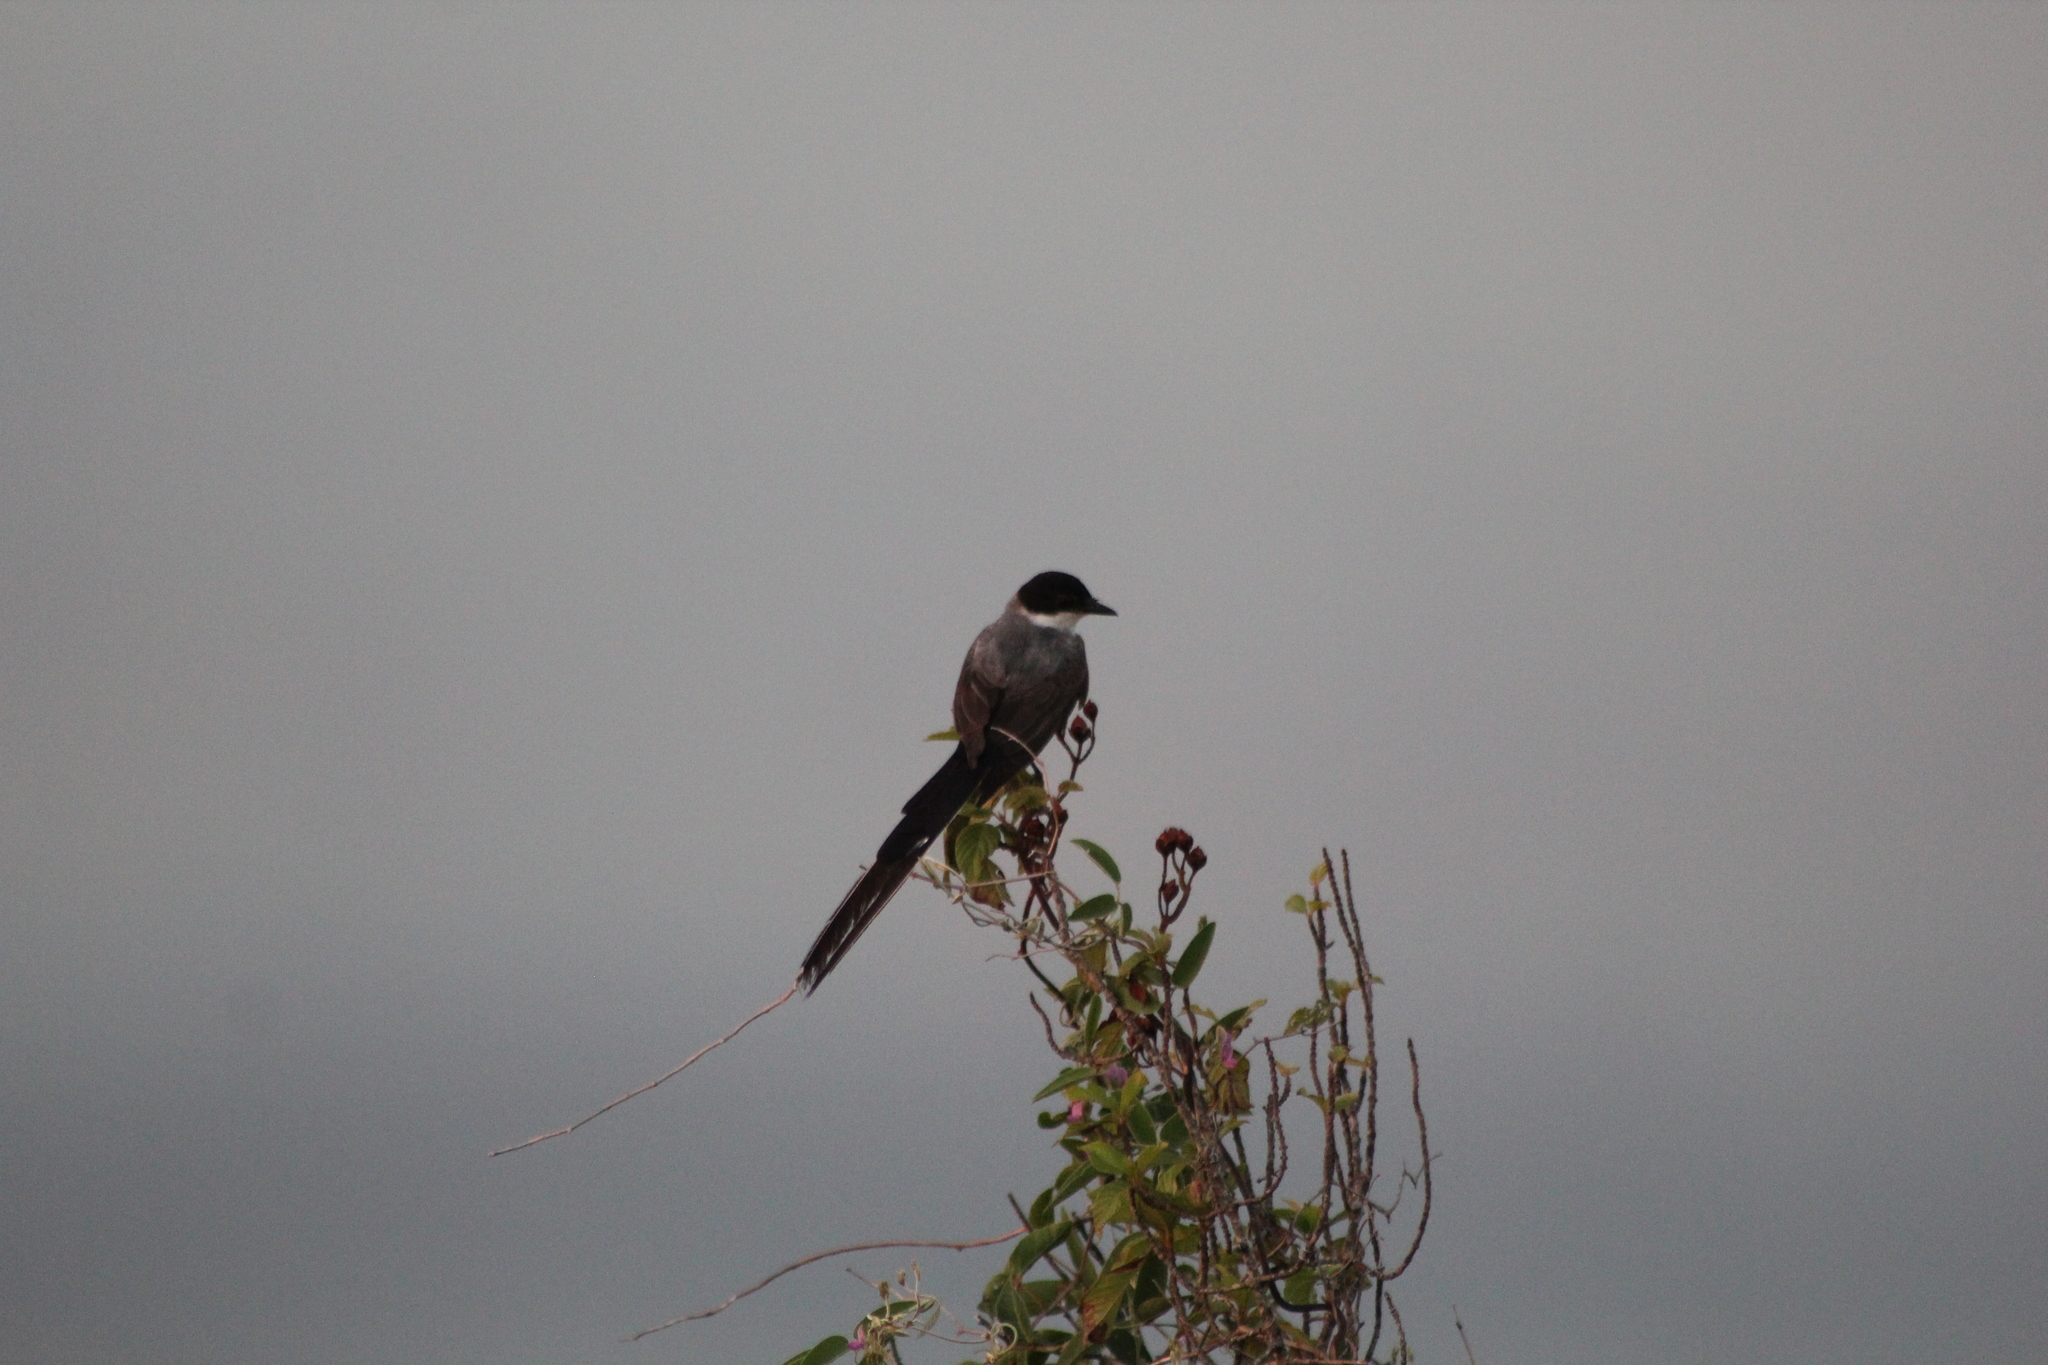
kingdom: Animalia
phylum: Chordata
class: Aves
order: Passeriformes
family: Tyrannidae
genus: Tyrannus
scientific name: Tyrannus savana
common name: Fork-tailed flycatcher
